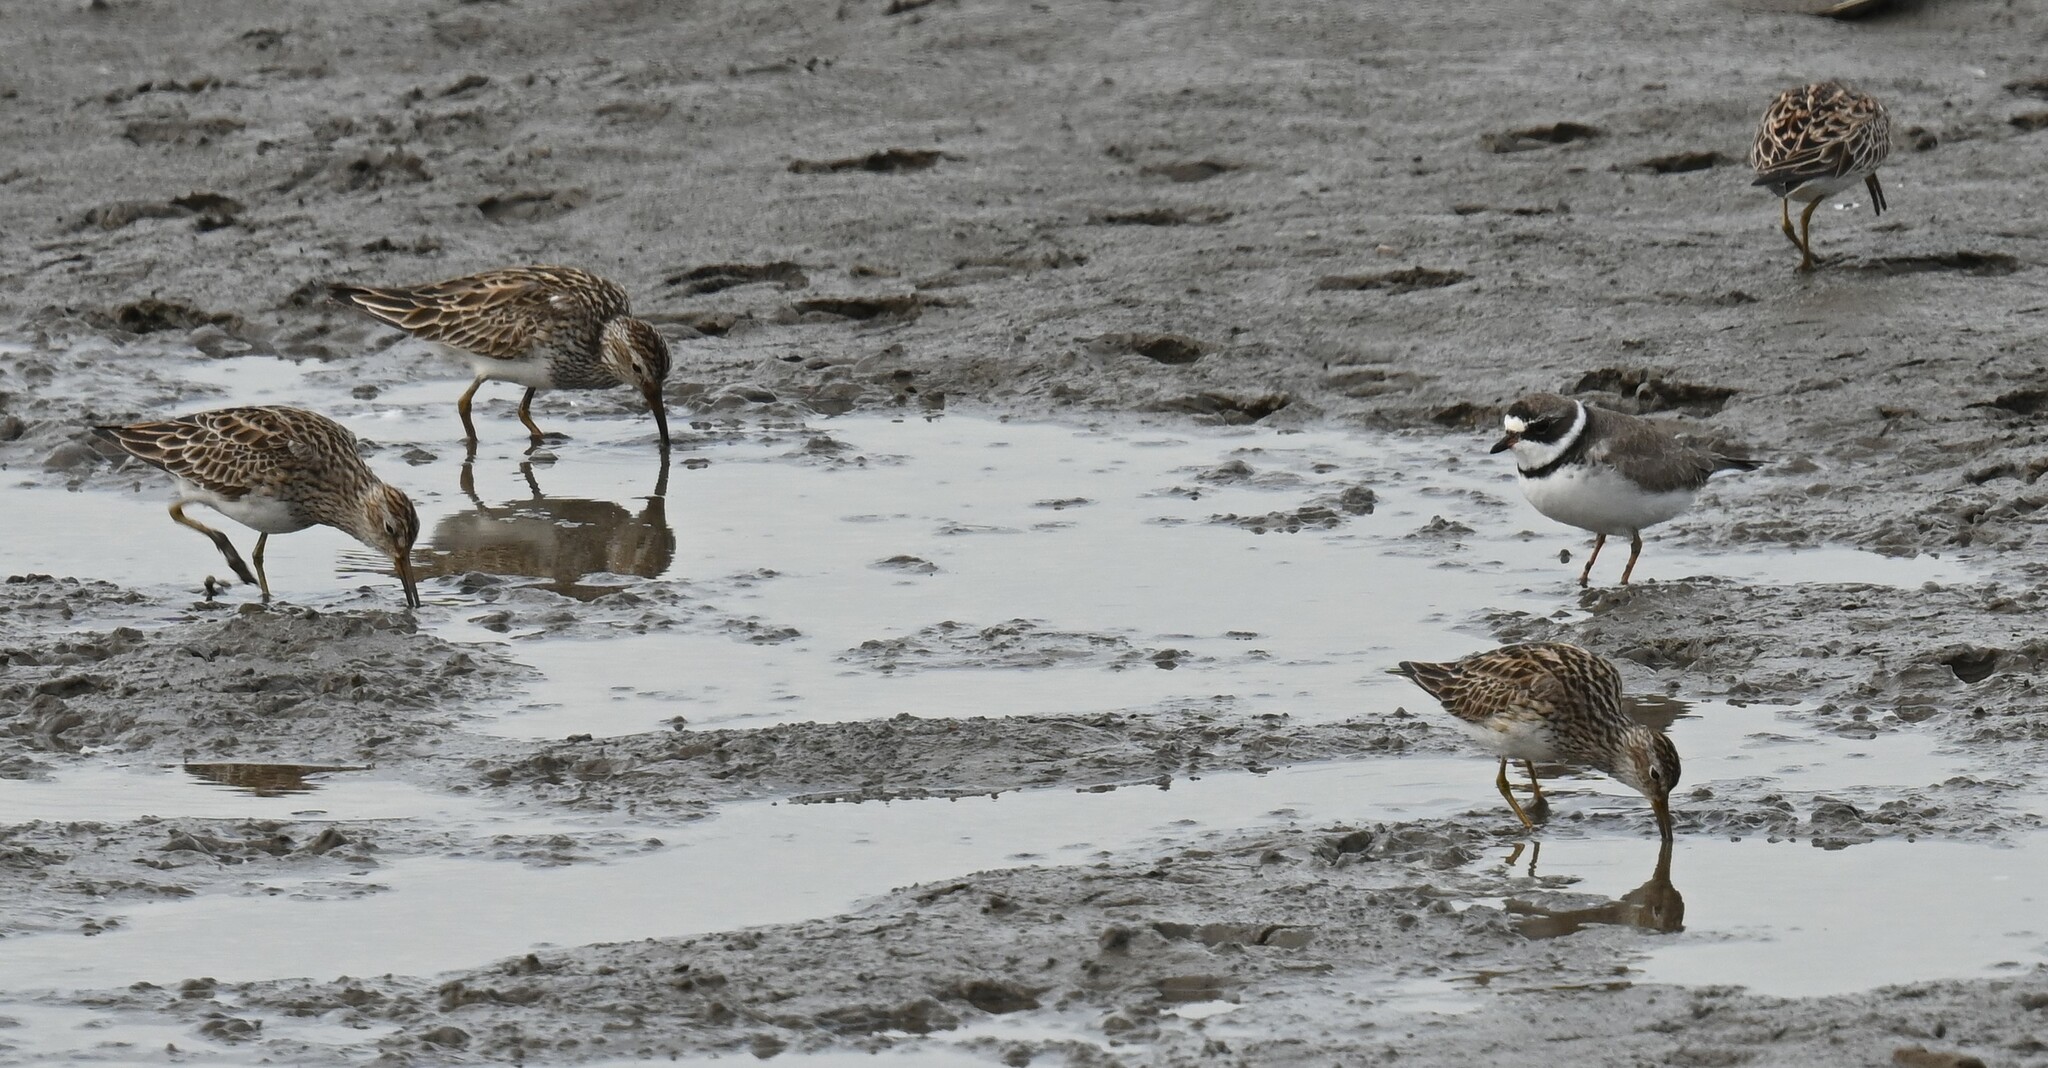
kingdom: Animalia
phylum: Chordata
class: Aves
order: Charadriiformes
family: Scolopacidae
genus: Calidris
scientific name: Calidris melanotos
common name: Pectoral sandpiper
